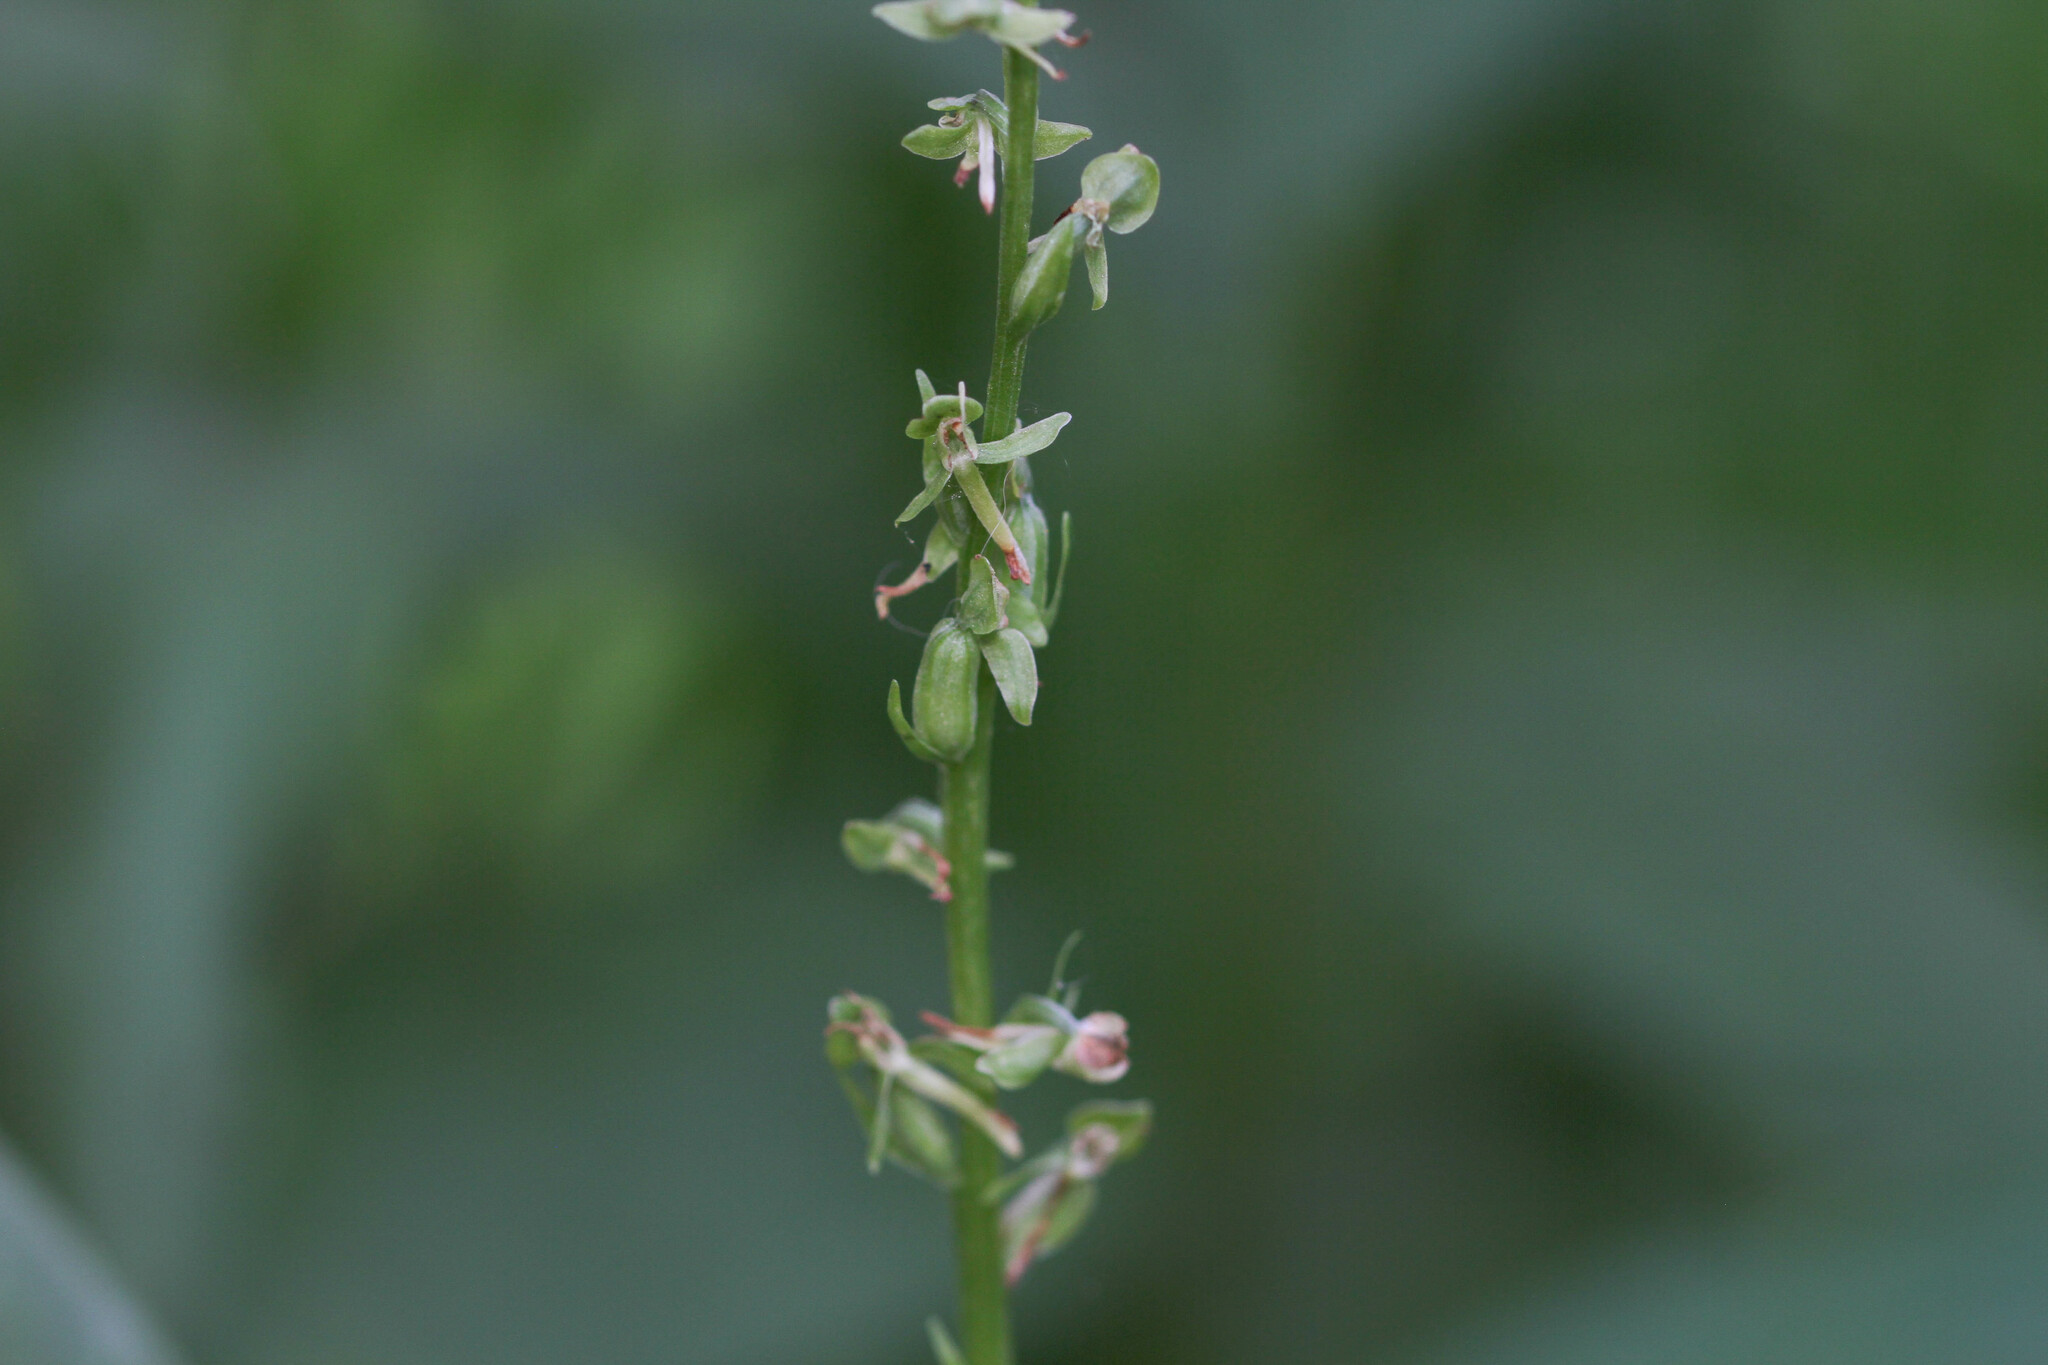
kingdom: Plantae
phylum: Tracheophyta
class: Liliopsida
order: Asparagales
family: Orchidaceae
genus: Platanthera
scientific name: Platanthera sparsiflora
